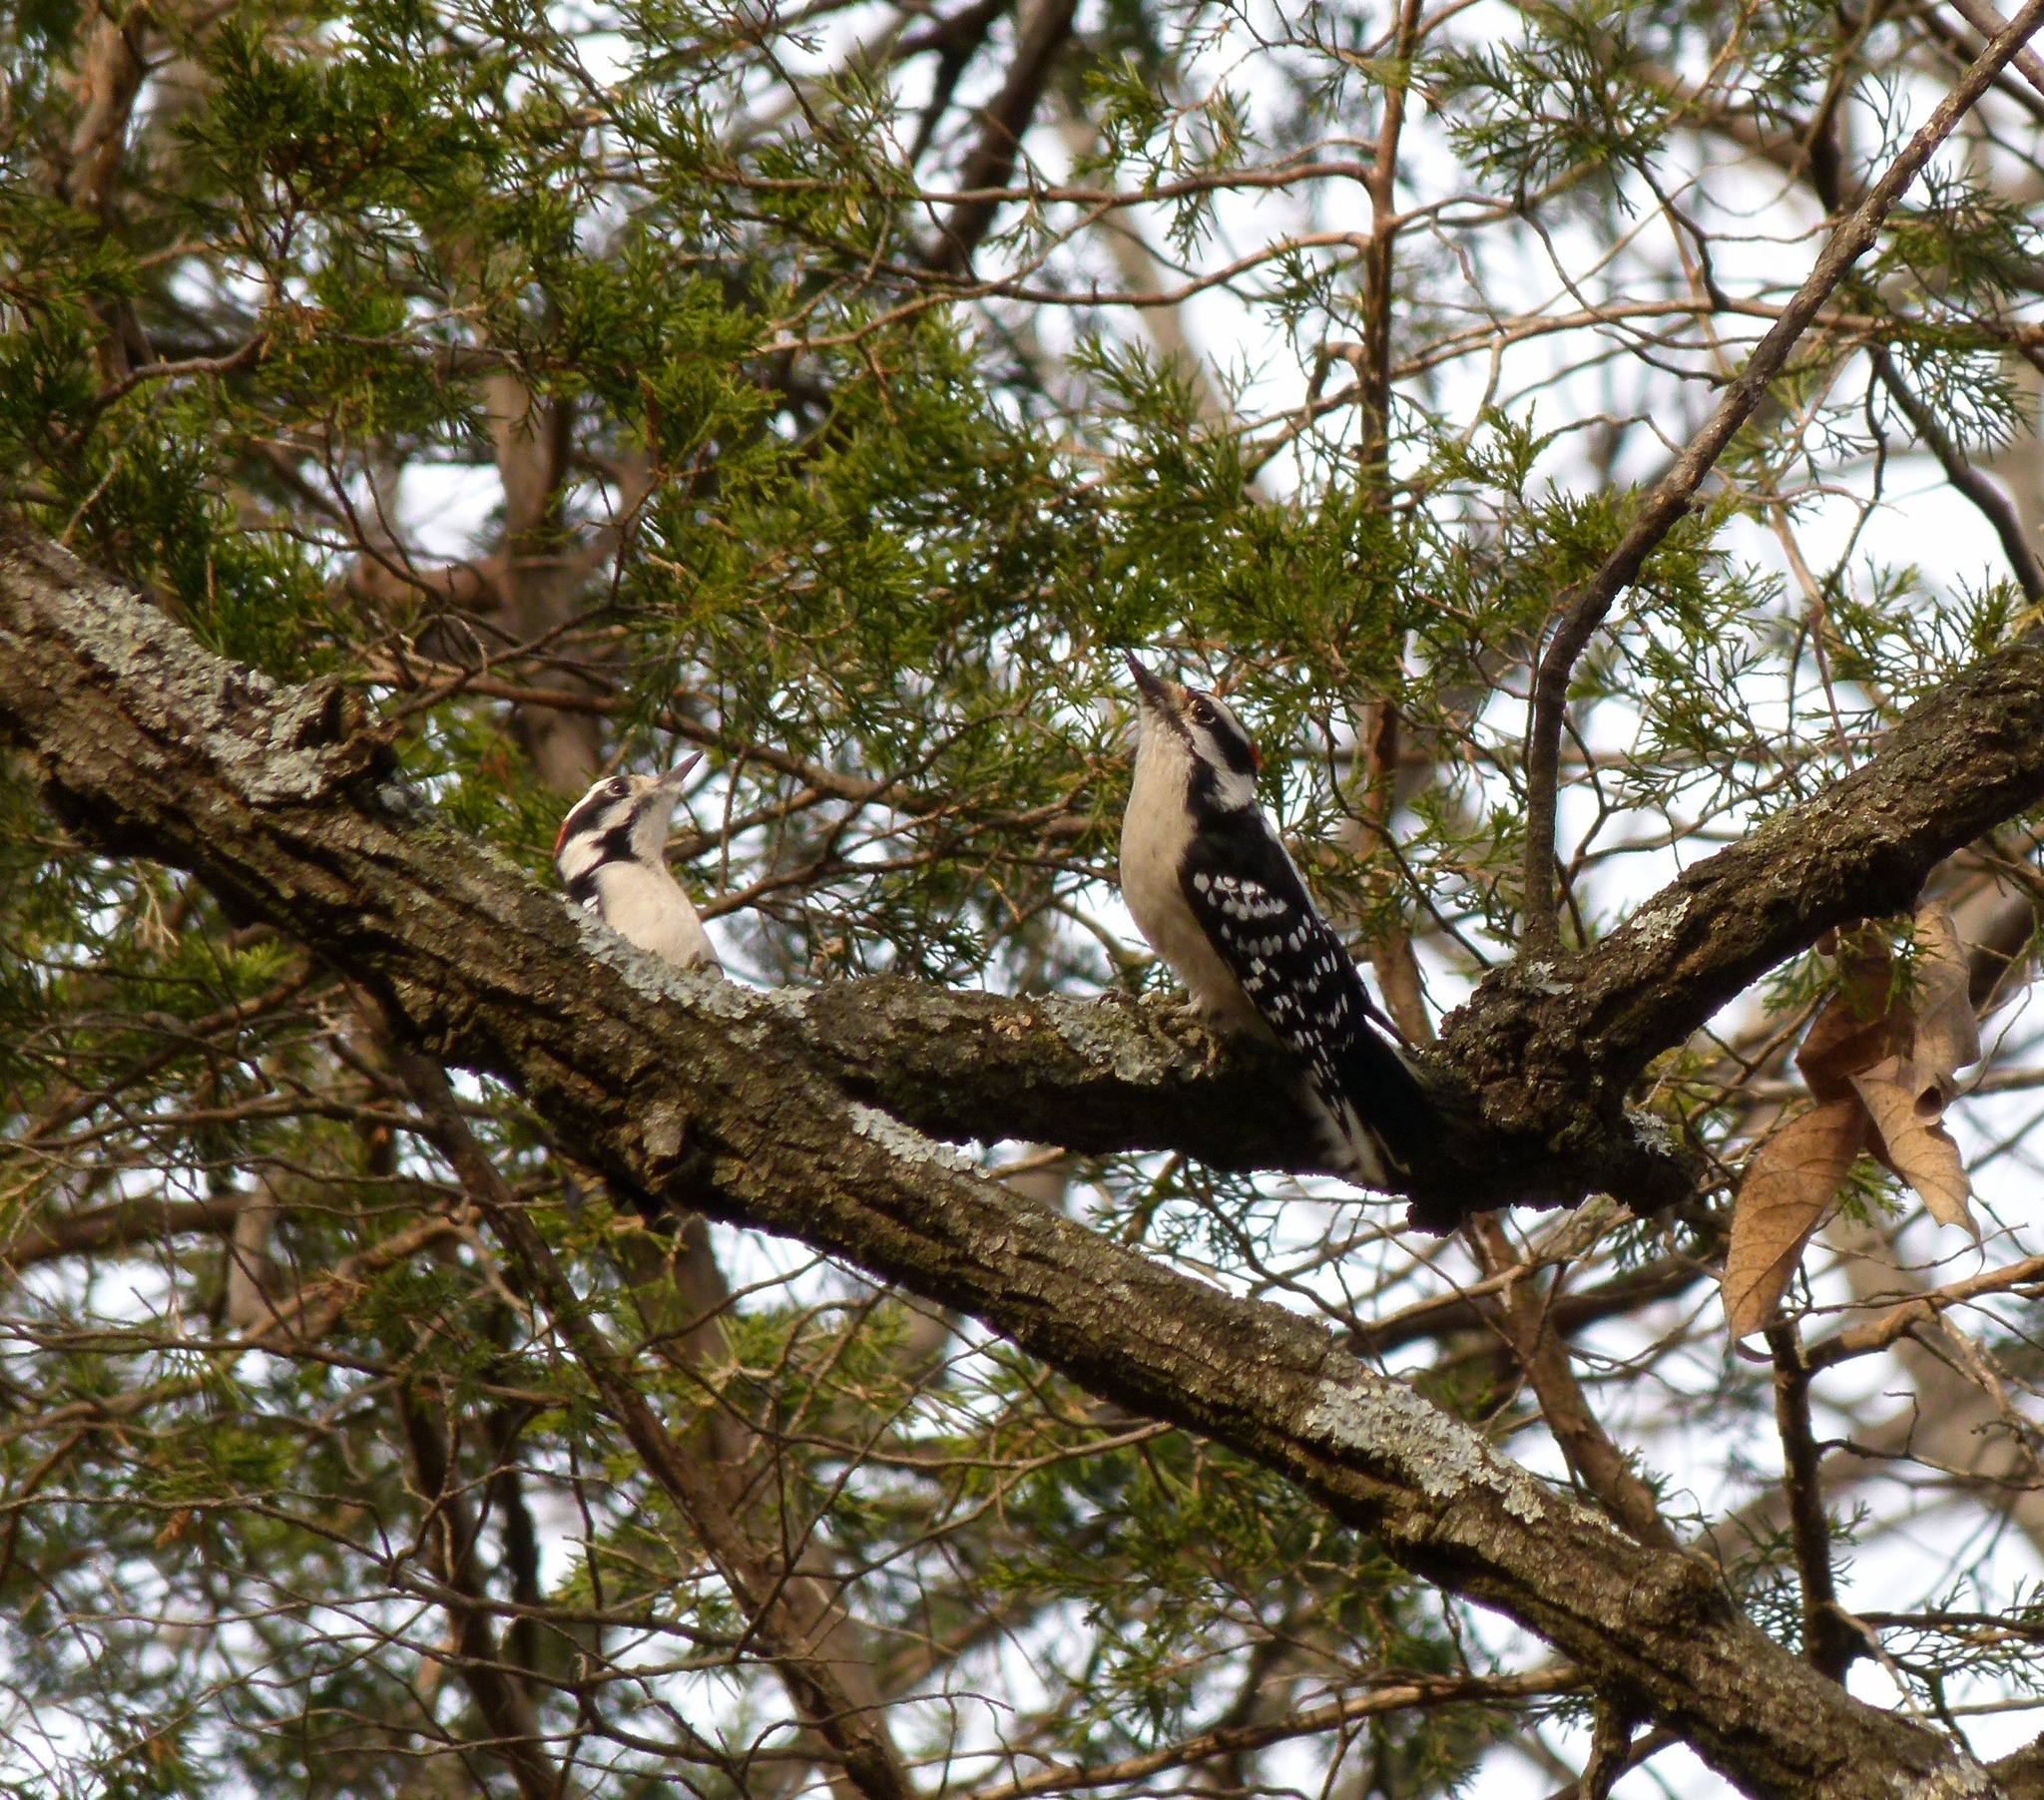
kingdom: Animalia
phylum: Chordata
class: Aves
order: Piciformes
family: Picidae
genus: Dryobates
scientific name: Dryobates pubescens
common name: Downy woodpecker
